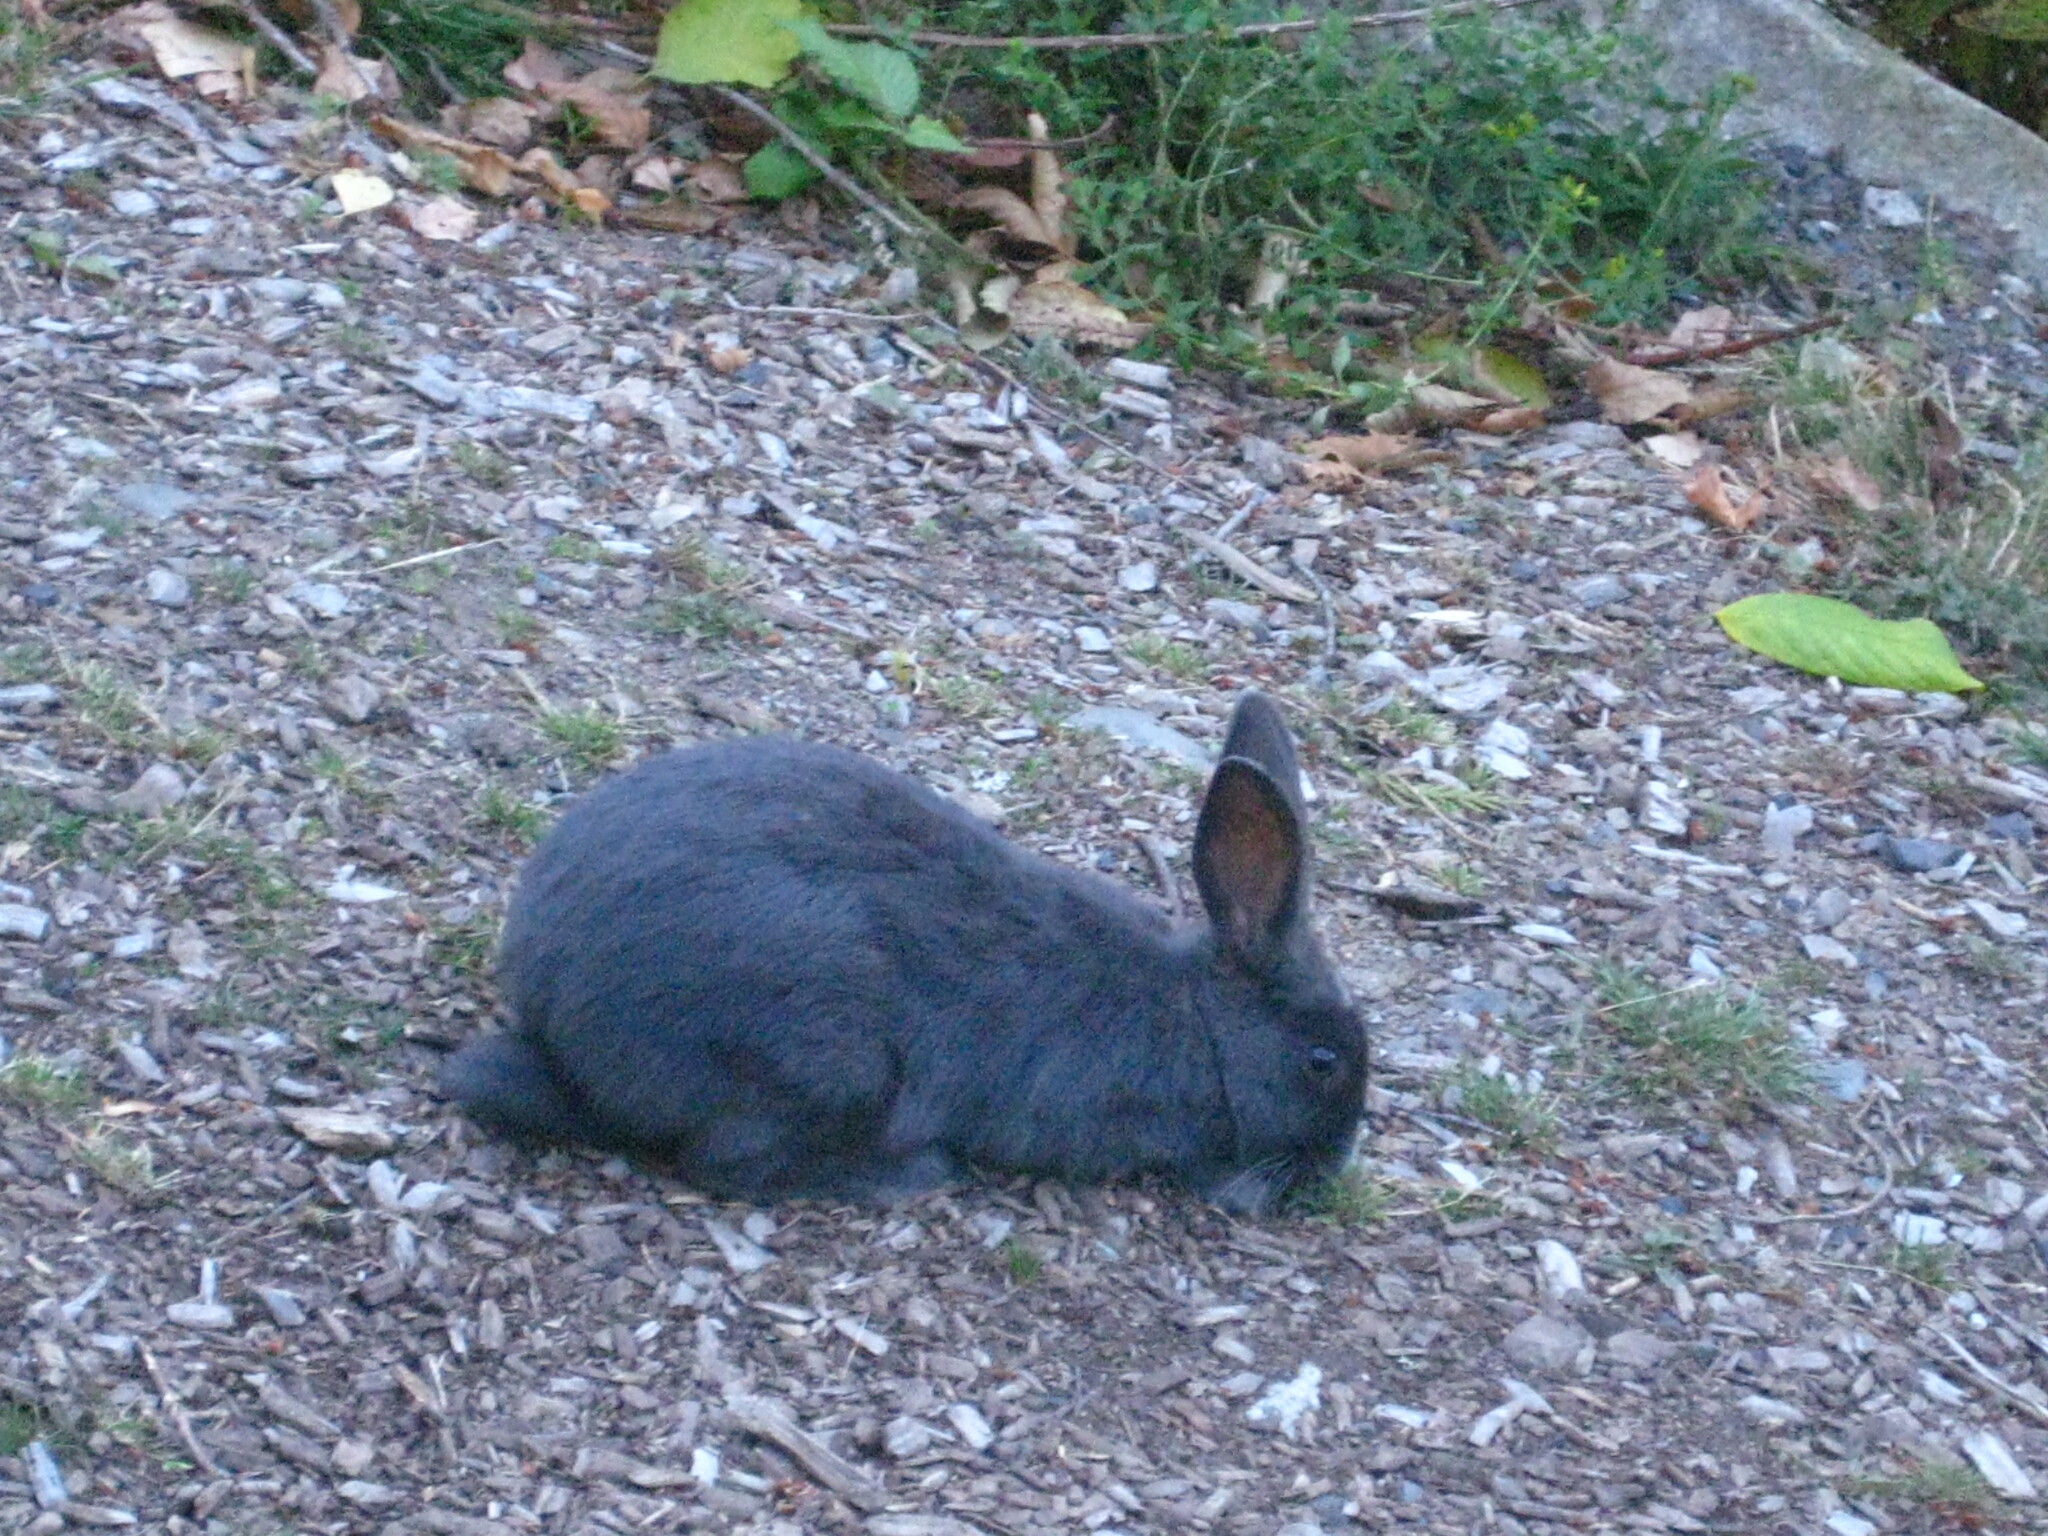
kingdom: Animalia
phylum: Chordata
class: Mammalia
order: Lagomorpha
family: Leporidae
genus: Oryctolagus
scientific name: Oryctolagus cuniculus
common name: European rabbit
